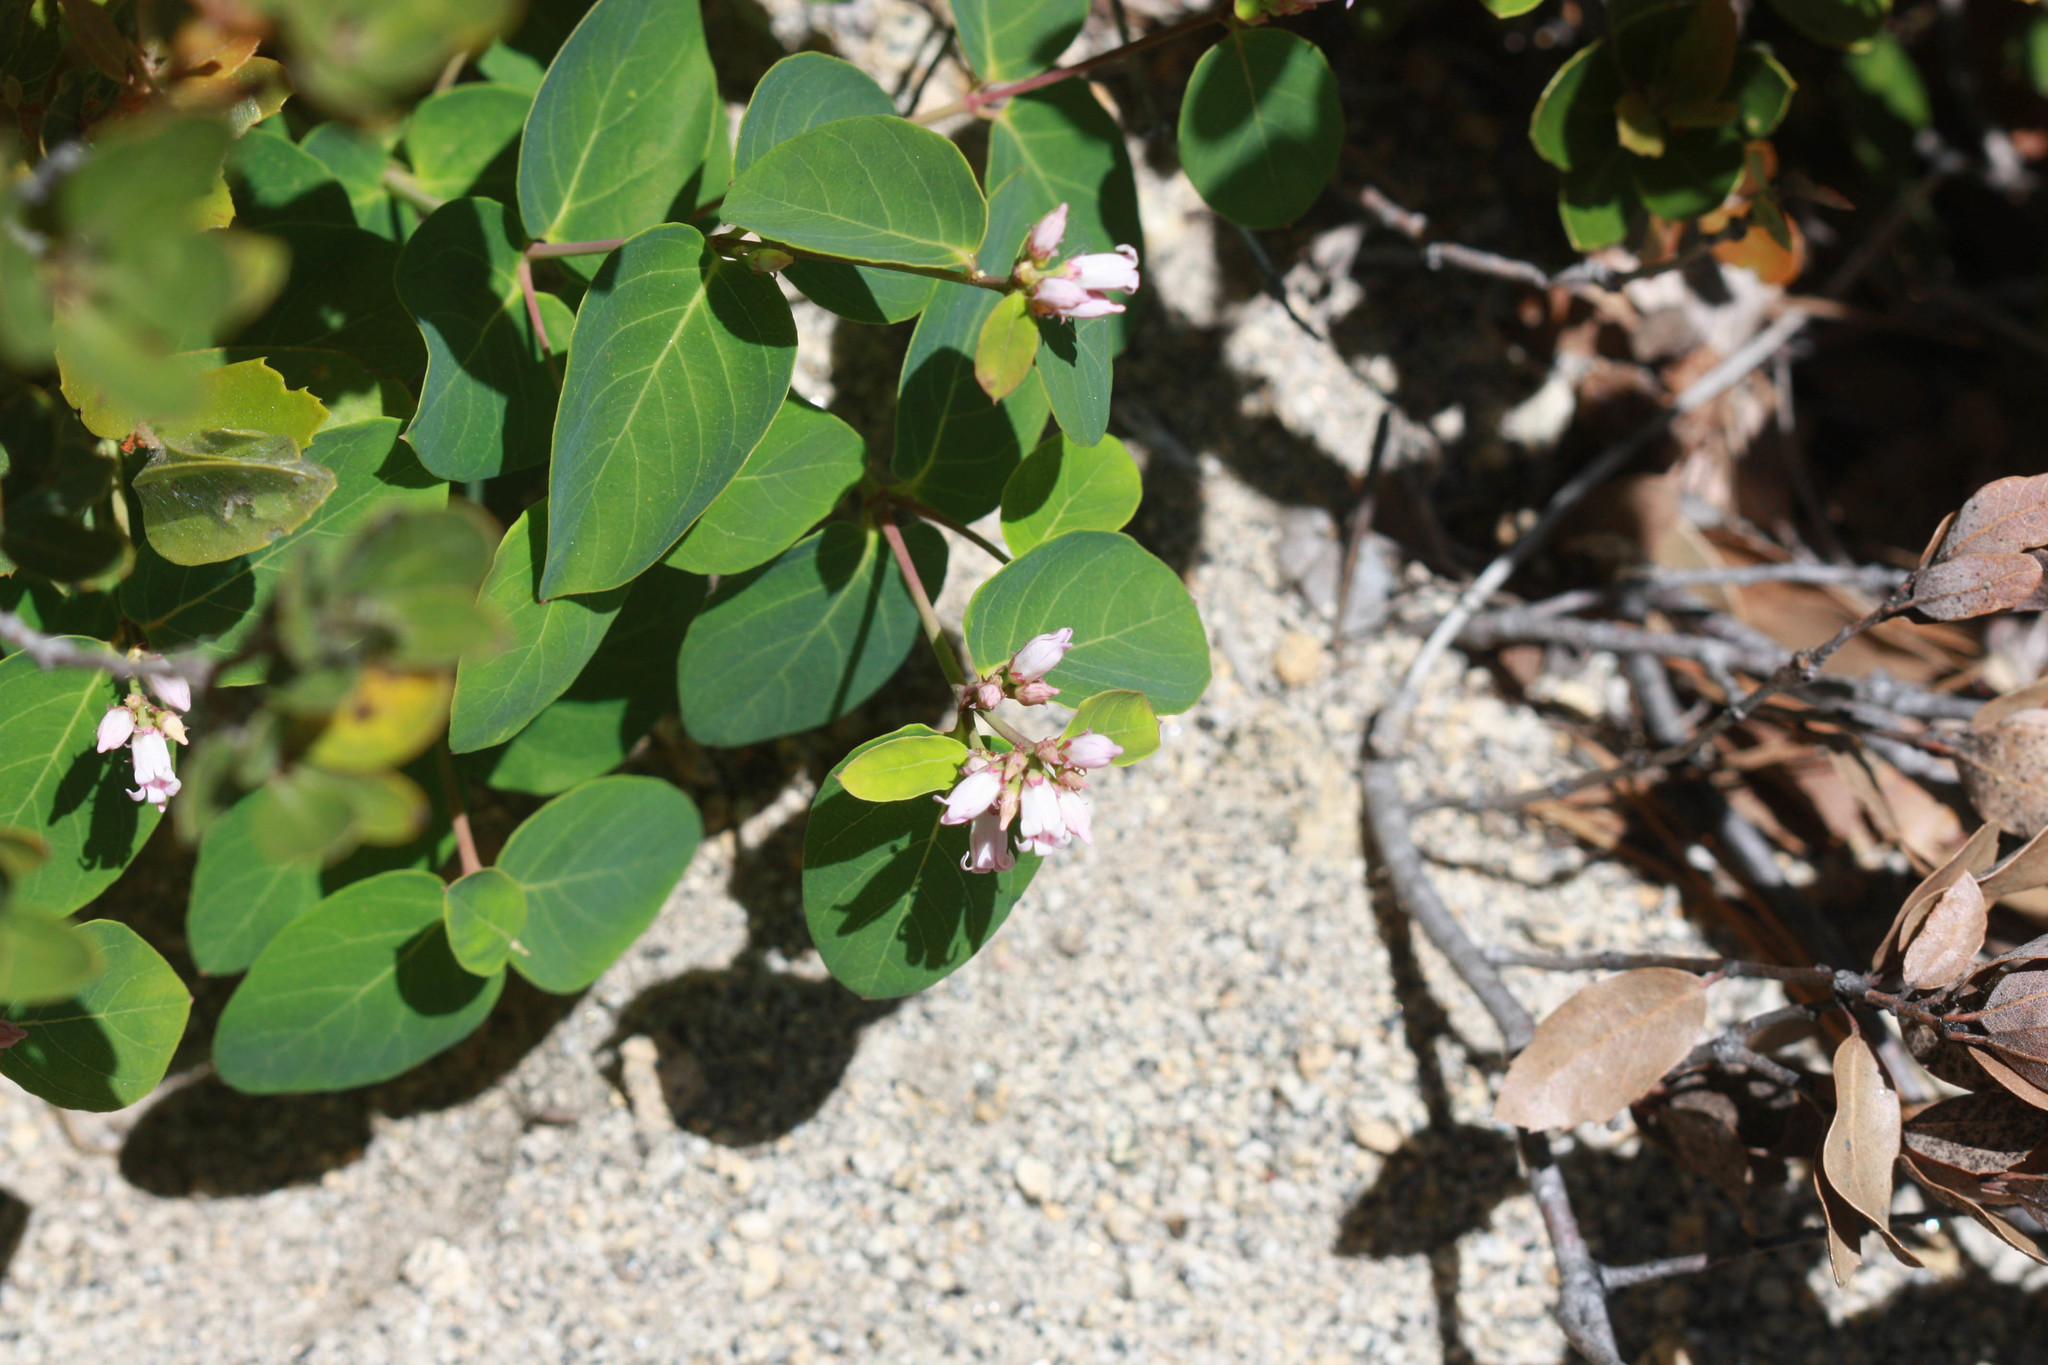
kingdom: Plantae
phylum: Tracheophyta
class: Magnoliopsida
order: Gentianales
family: Apocynaceae
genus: Apocynum
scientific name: Apocynum androsaemifolium
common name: Spreading dogbane
